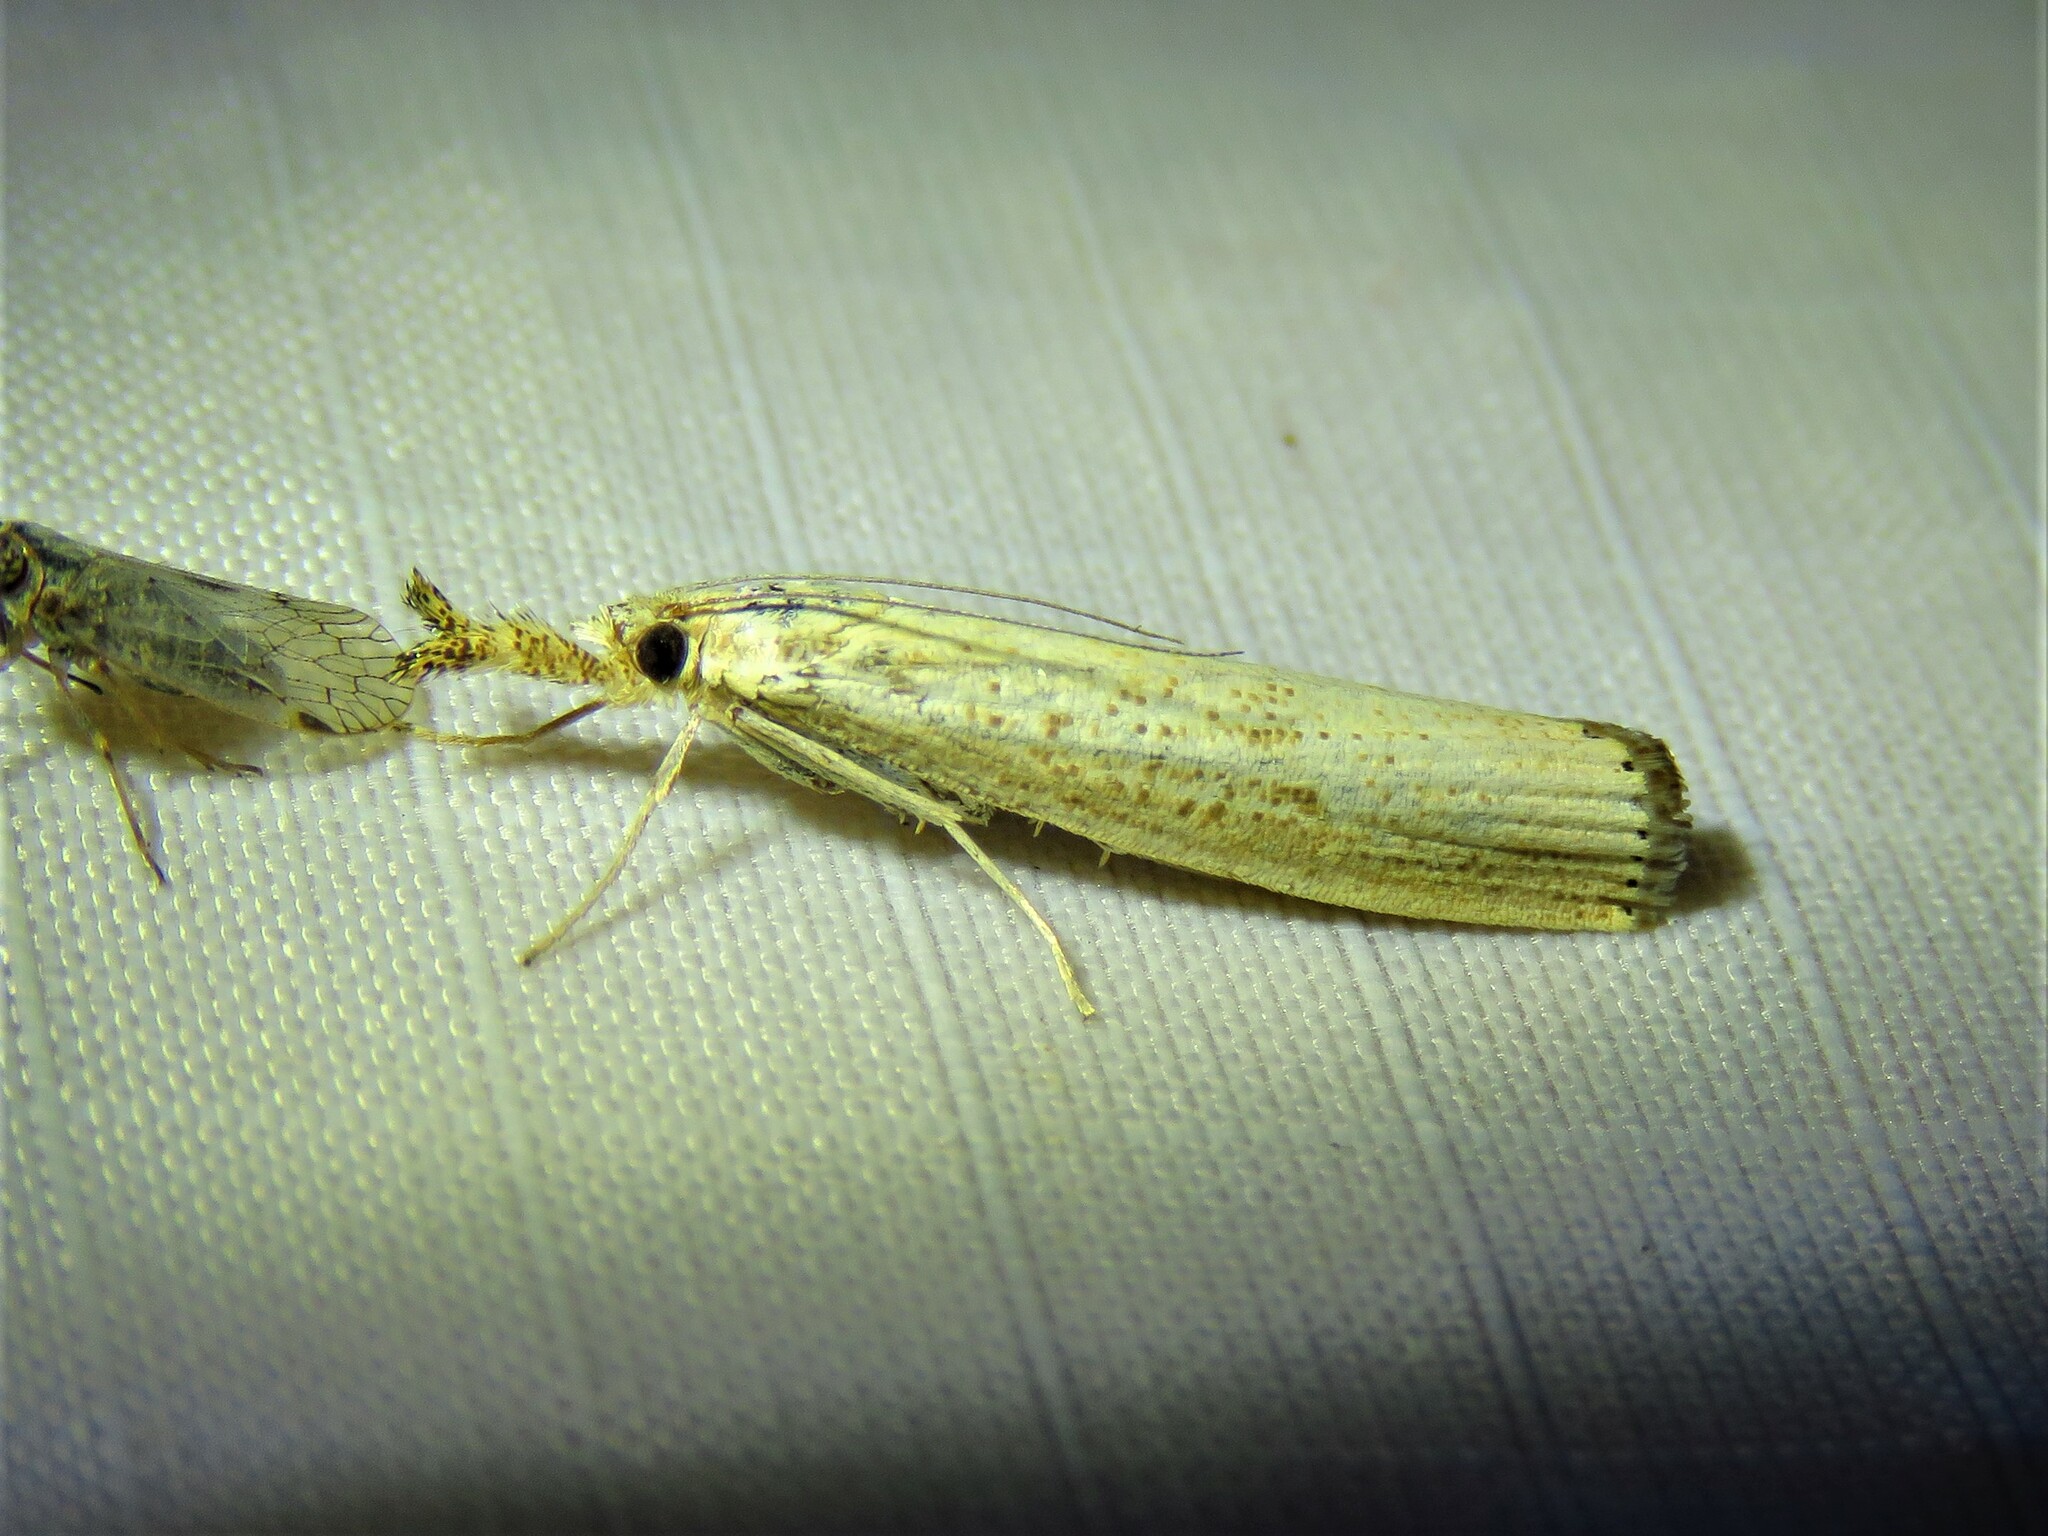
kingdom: Animalia
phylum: Arthropoda
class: Insecta
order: Lepidoptera
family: Crambidae
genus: Agriphila
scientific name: Agriphila vulgivagellus
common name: Vagabond crambus moth
